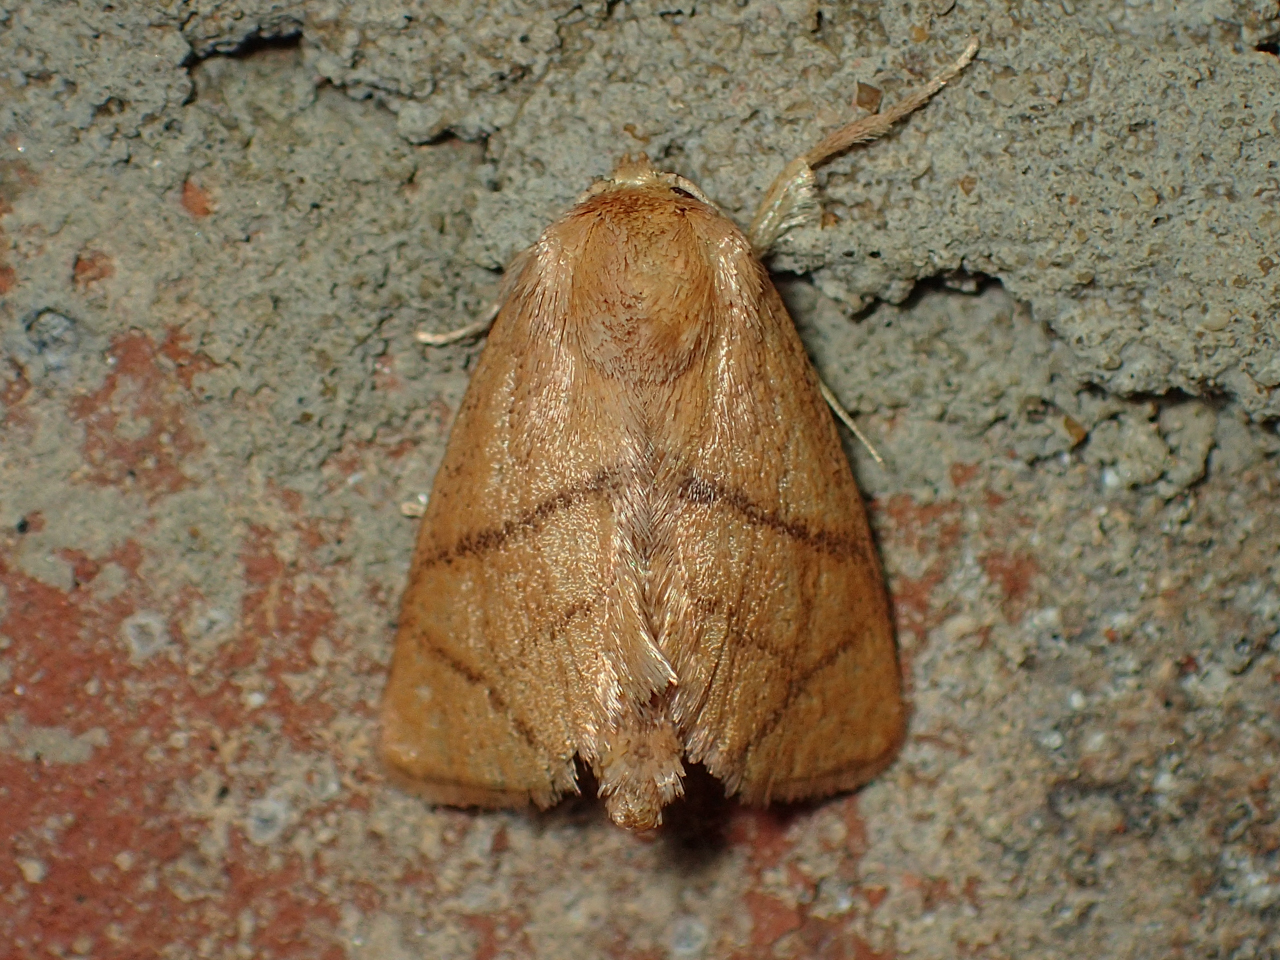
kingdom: Animalia
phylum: Arthropoda
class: Insecta
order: Lepidoptera
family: Limacodidae
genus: Apoda
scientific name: Apoda y-inversa
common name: Yellow-collared slug moth
